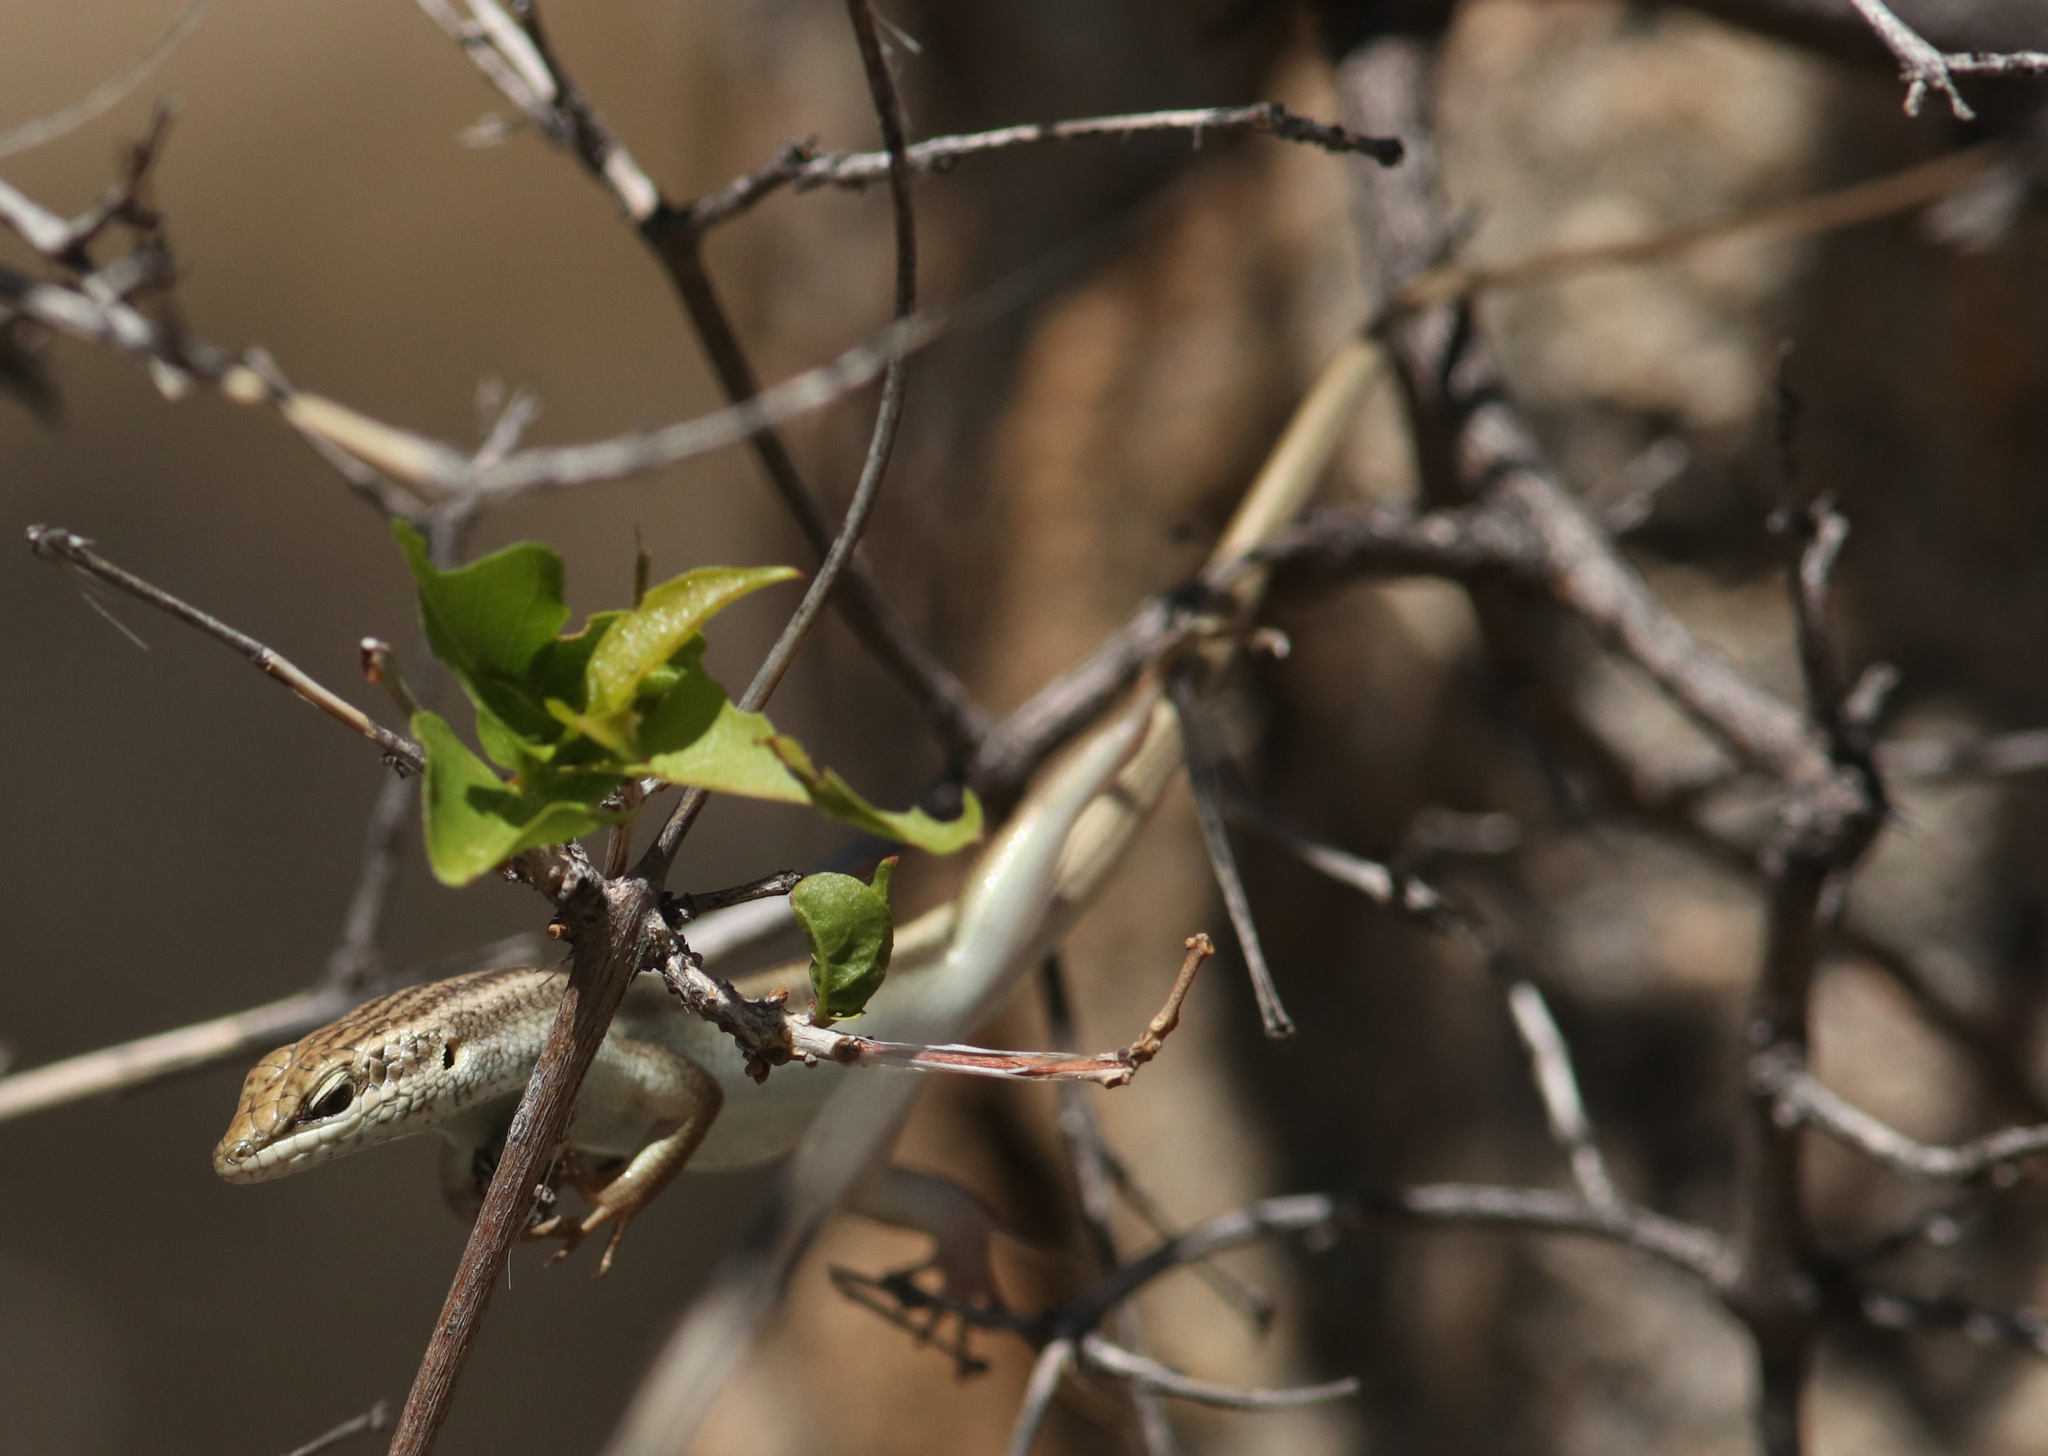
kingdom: Animalia
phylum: Chordata
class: Squamata
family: Scincidae
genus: Trachylepis
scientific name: Trachylepis sulcata
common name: Western rock skink
